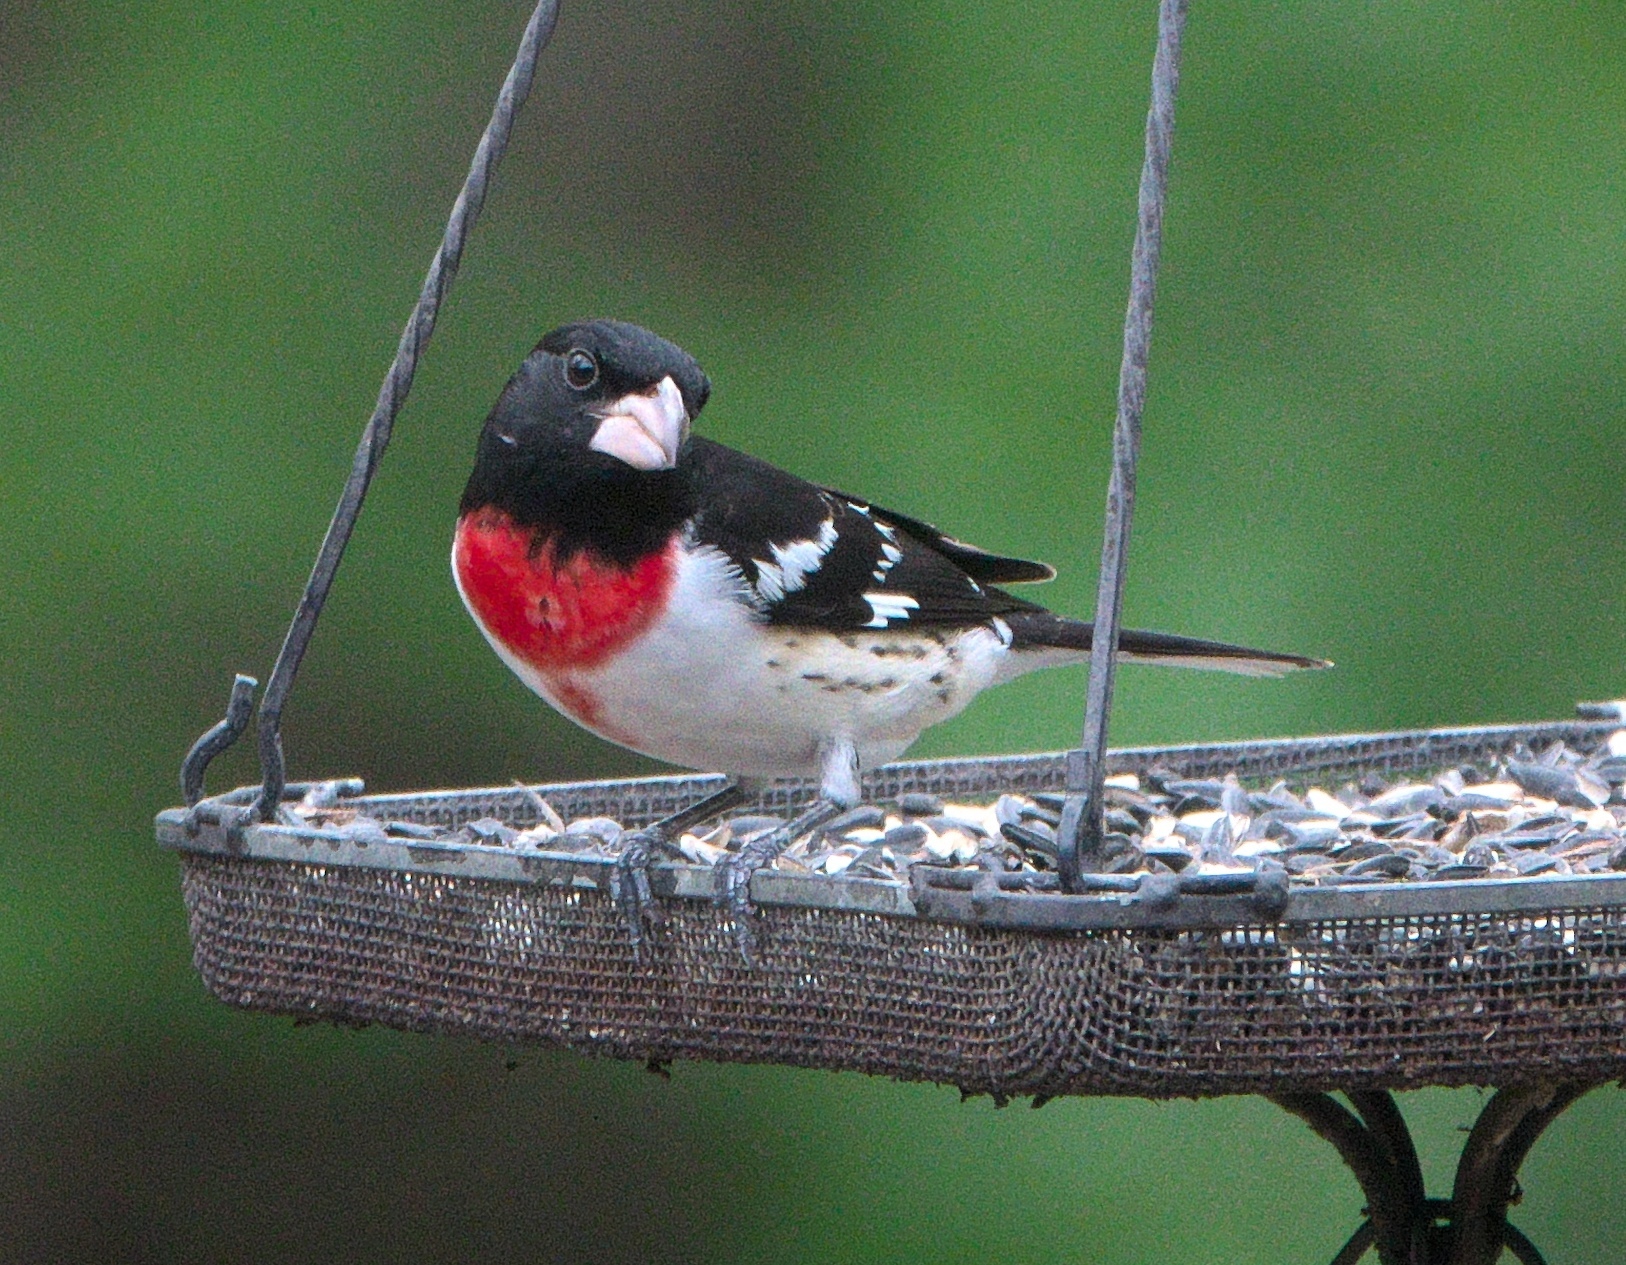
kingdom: Animalia
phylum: Chordata
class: Aves
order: Passeriformes
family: Cardinalidae
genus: Pheucticus
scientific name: Pheucticus ludovicianus
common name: Rose-breasted grosbeak
